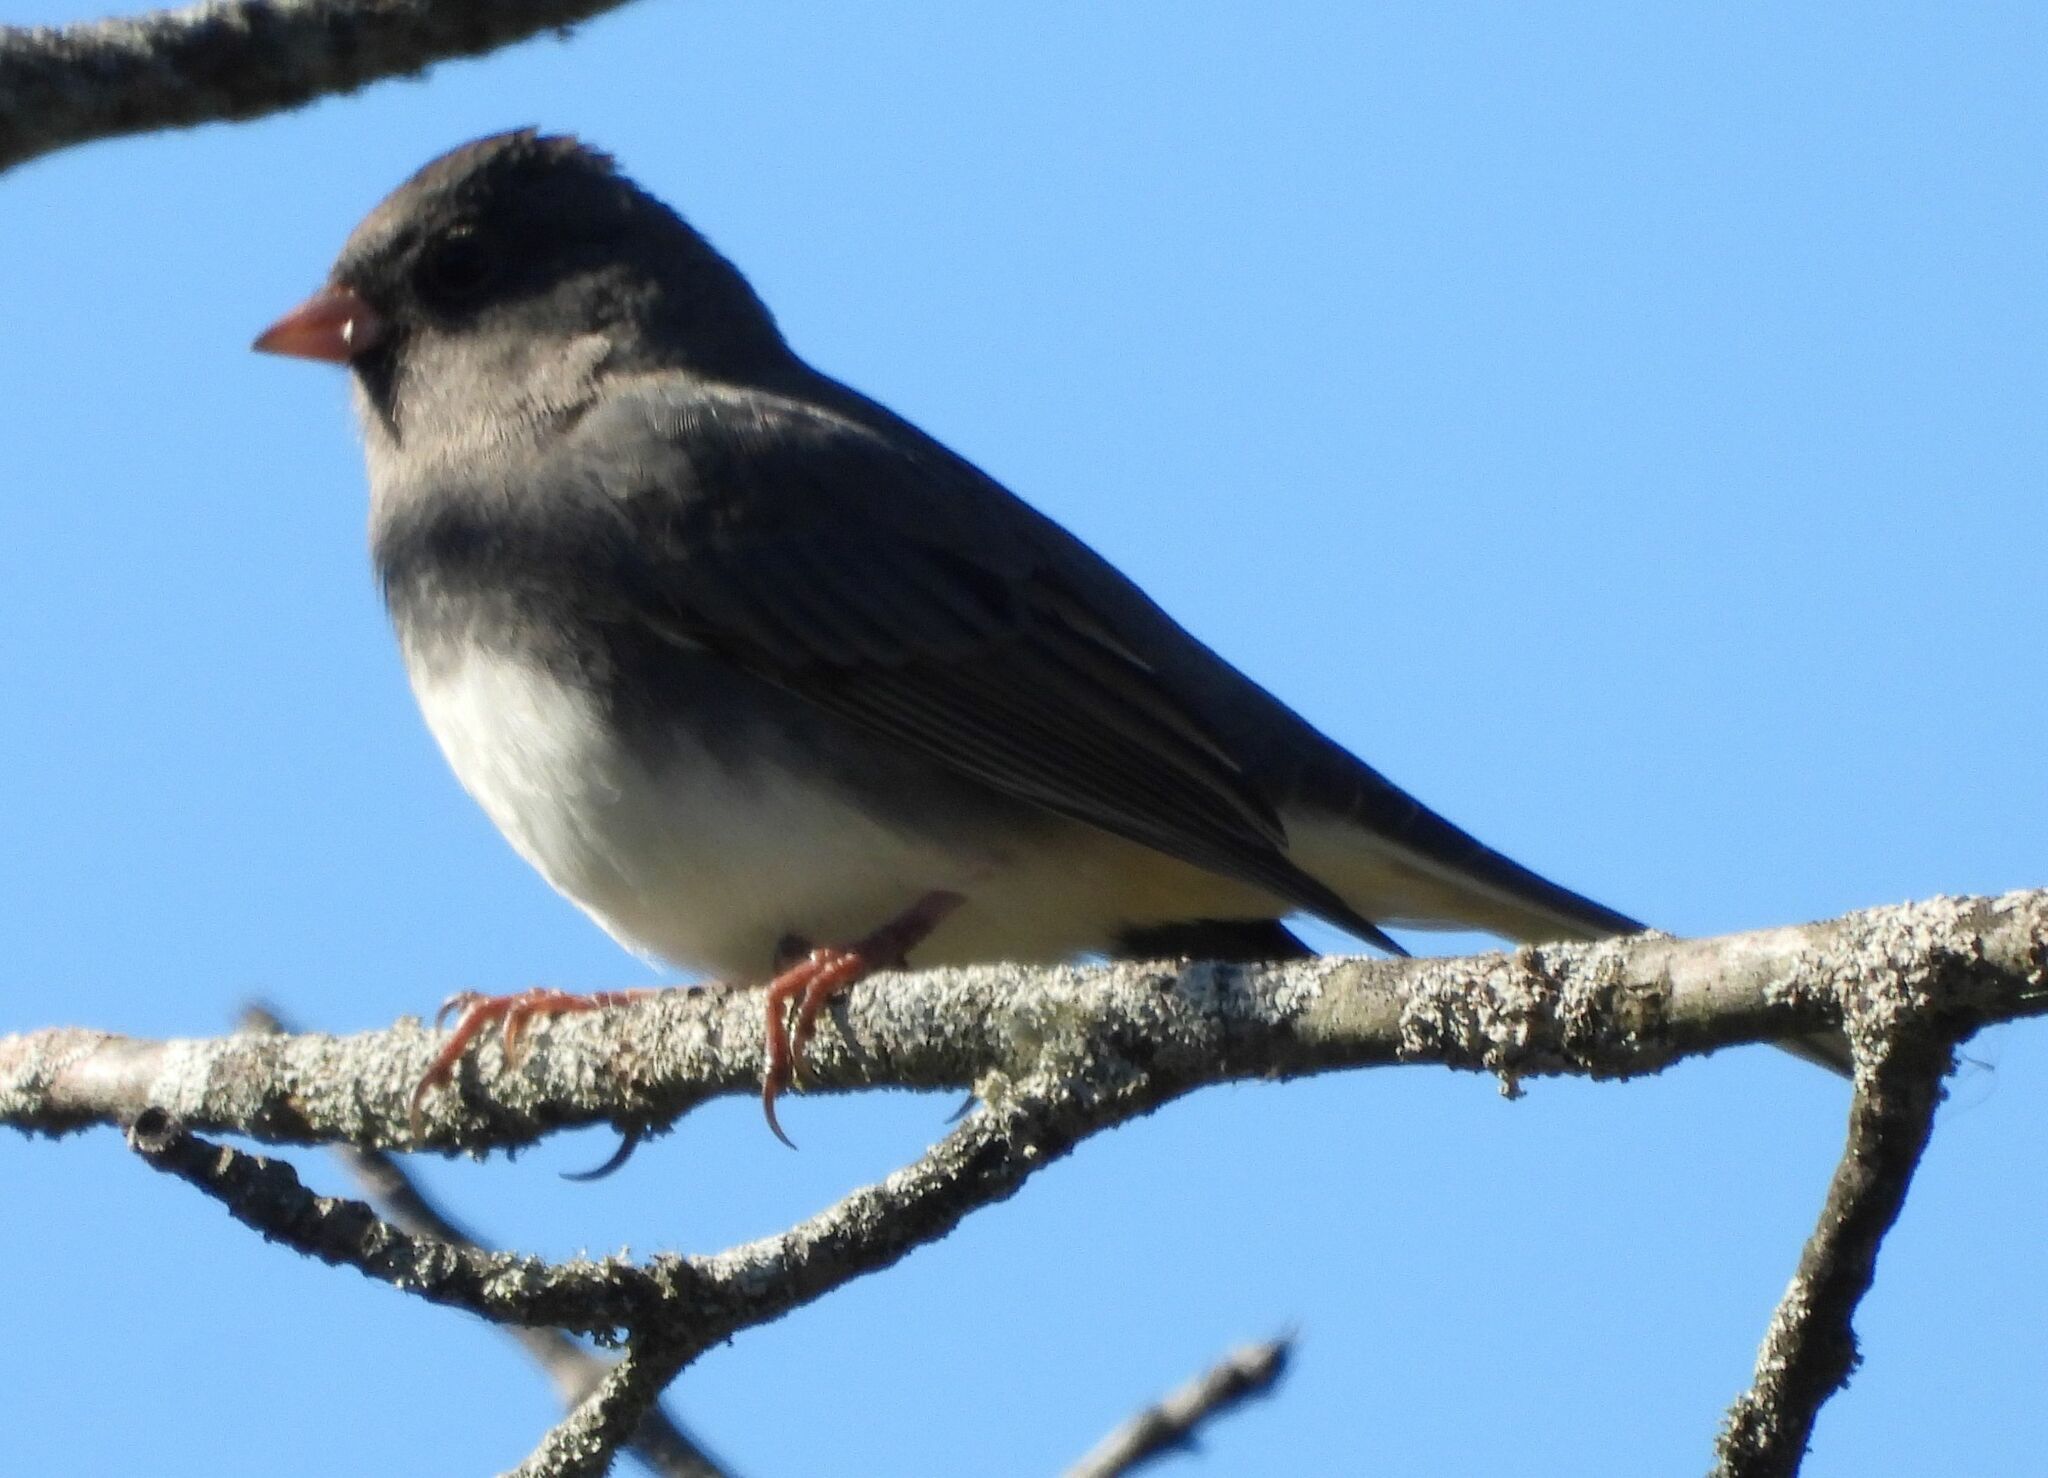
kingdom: Animalia
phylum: Chordata
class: Aves
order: Passeriformes
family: Passerellidae
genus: Junco
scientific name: Junco hyemalis
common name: Dark-eyed junco
